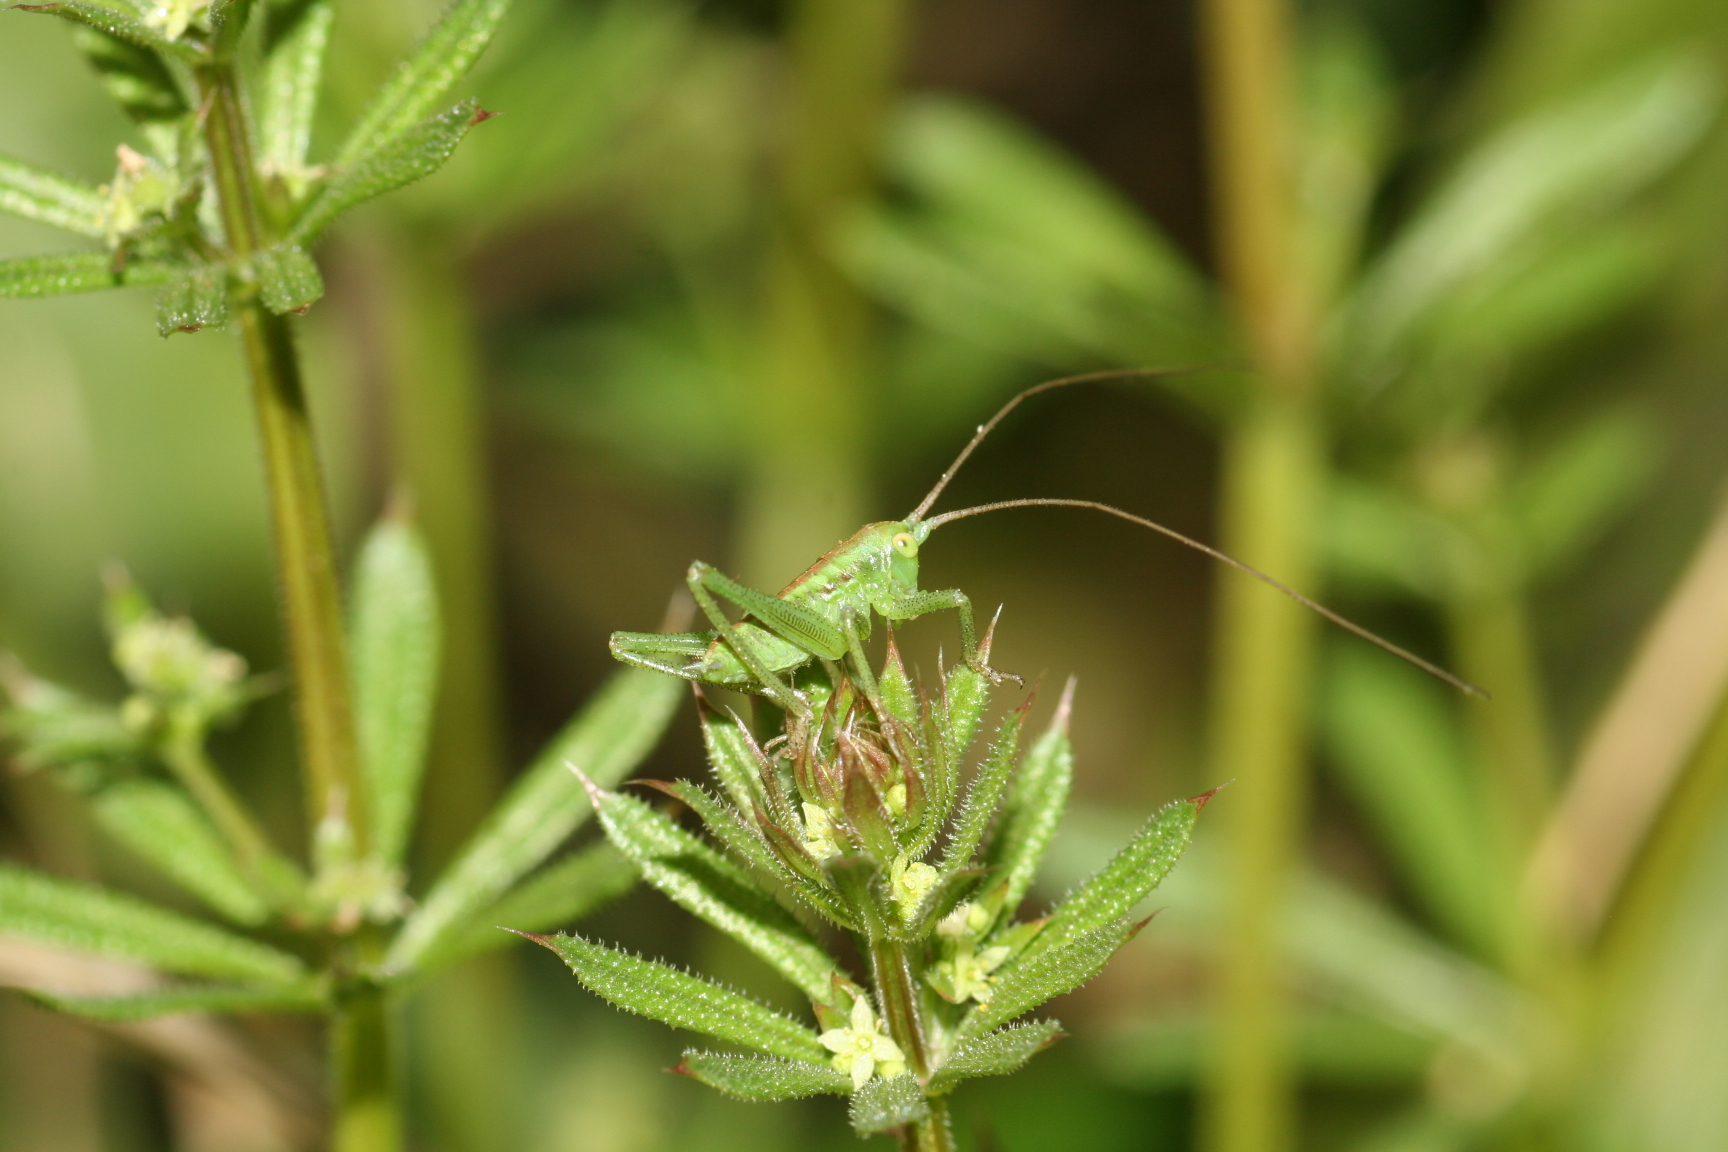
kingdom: Animalia
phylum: Arthropoda
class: Insecta
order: Orthoptera
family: Tettigoniidae
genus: Tettigonia
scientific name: Tettigonia orientalis
